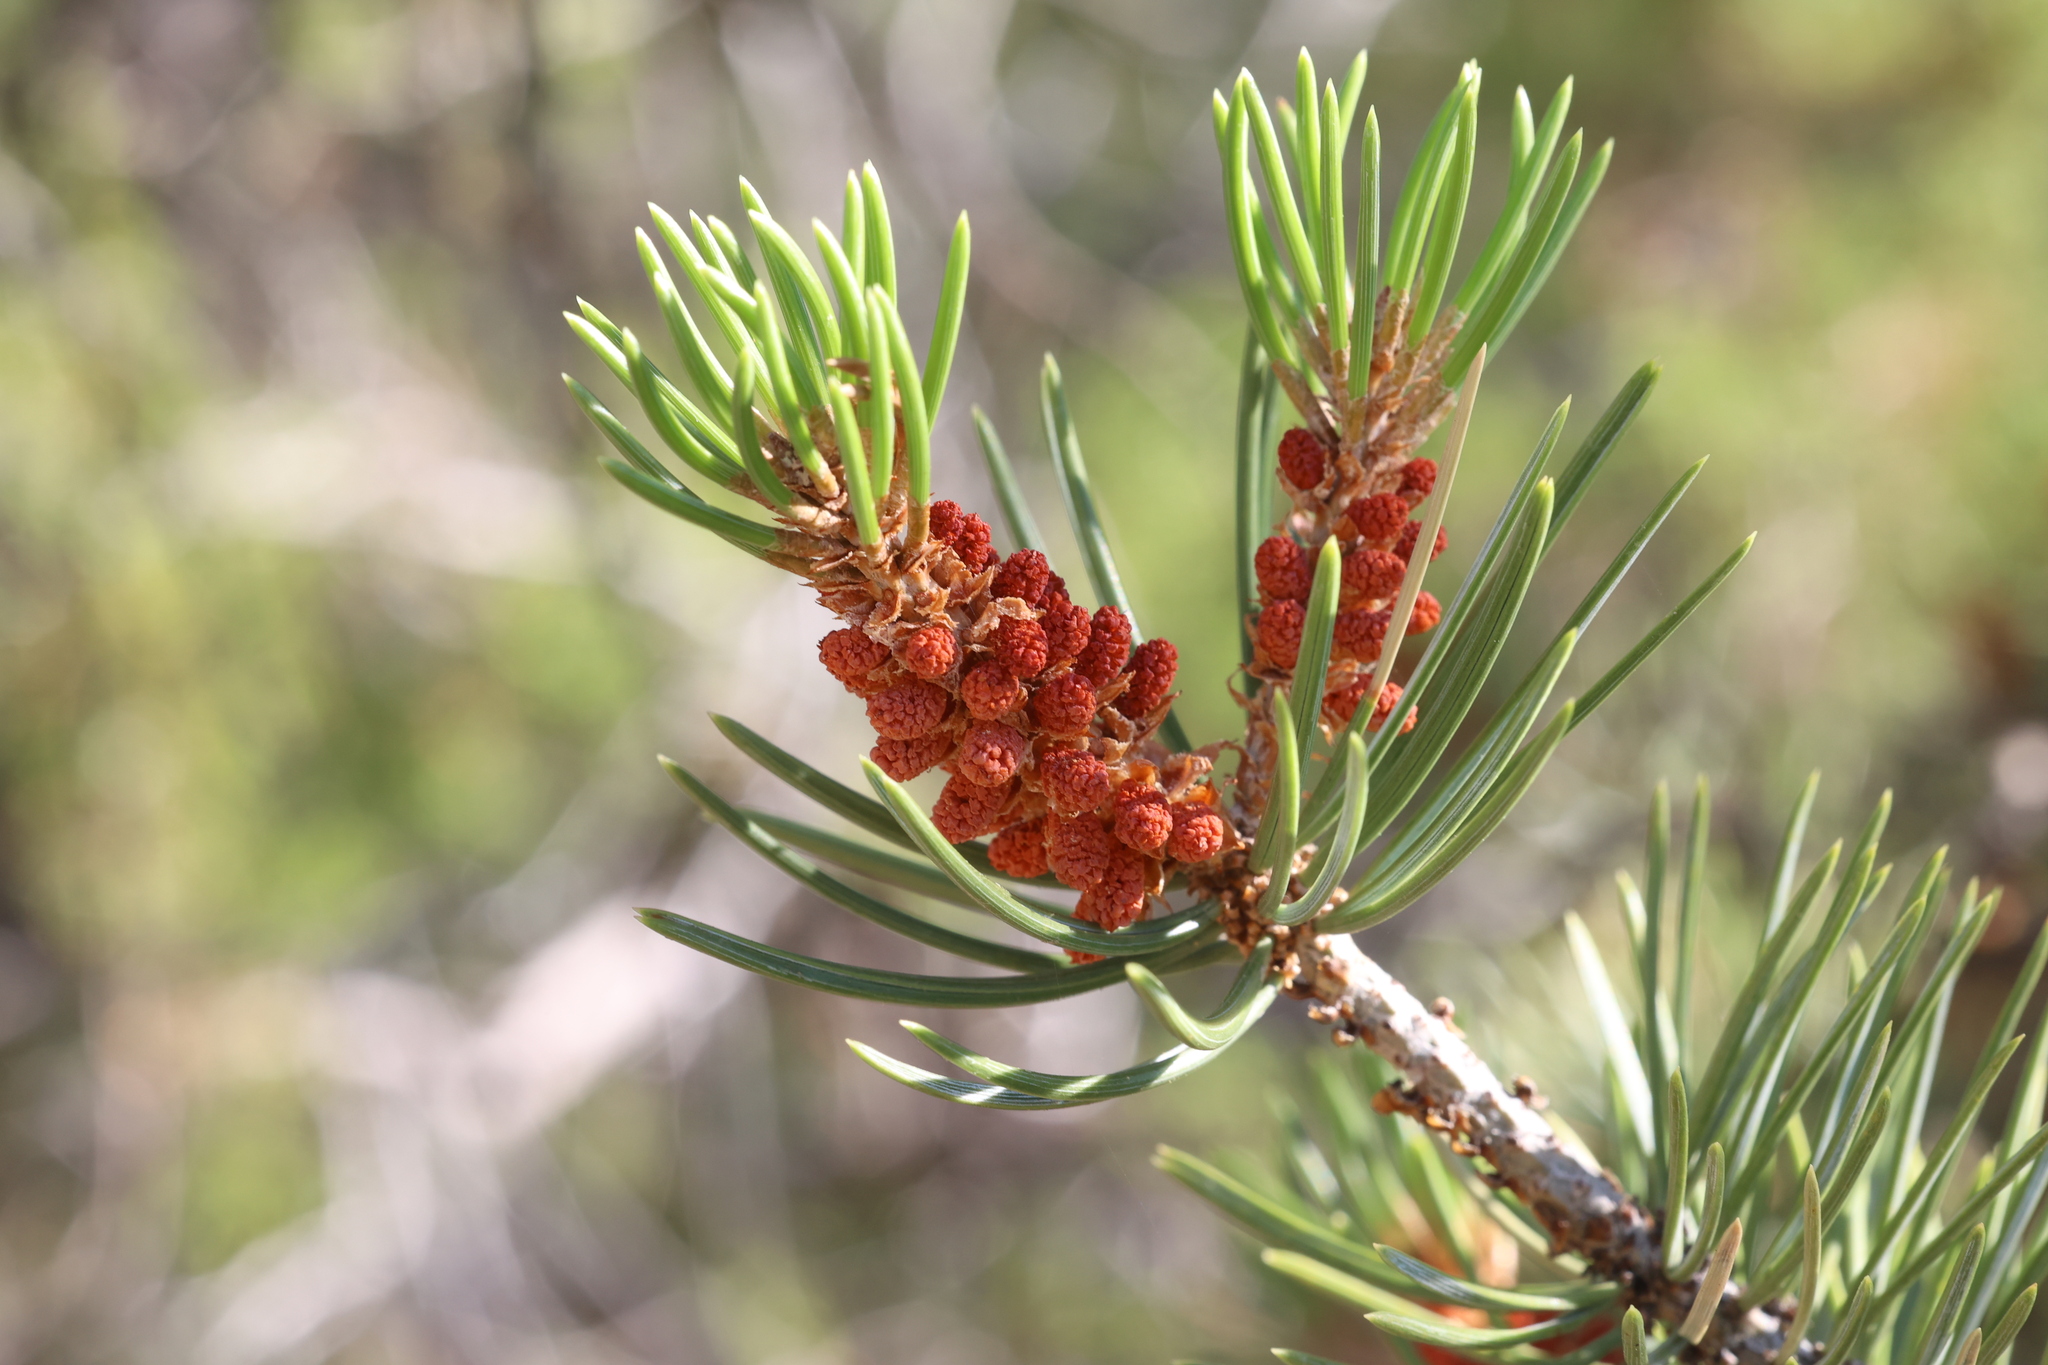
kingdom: Plantae
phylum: Tracheophyta
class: Pinopsida
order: Pinales
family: Pinaceae
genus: Pinus
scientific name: Pinus edulis
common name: Colorado pinyon
